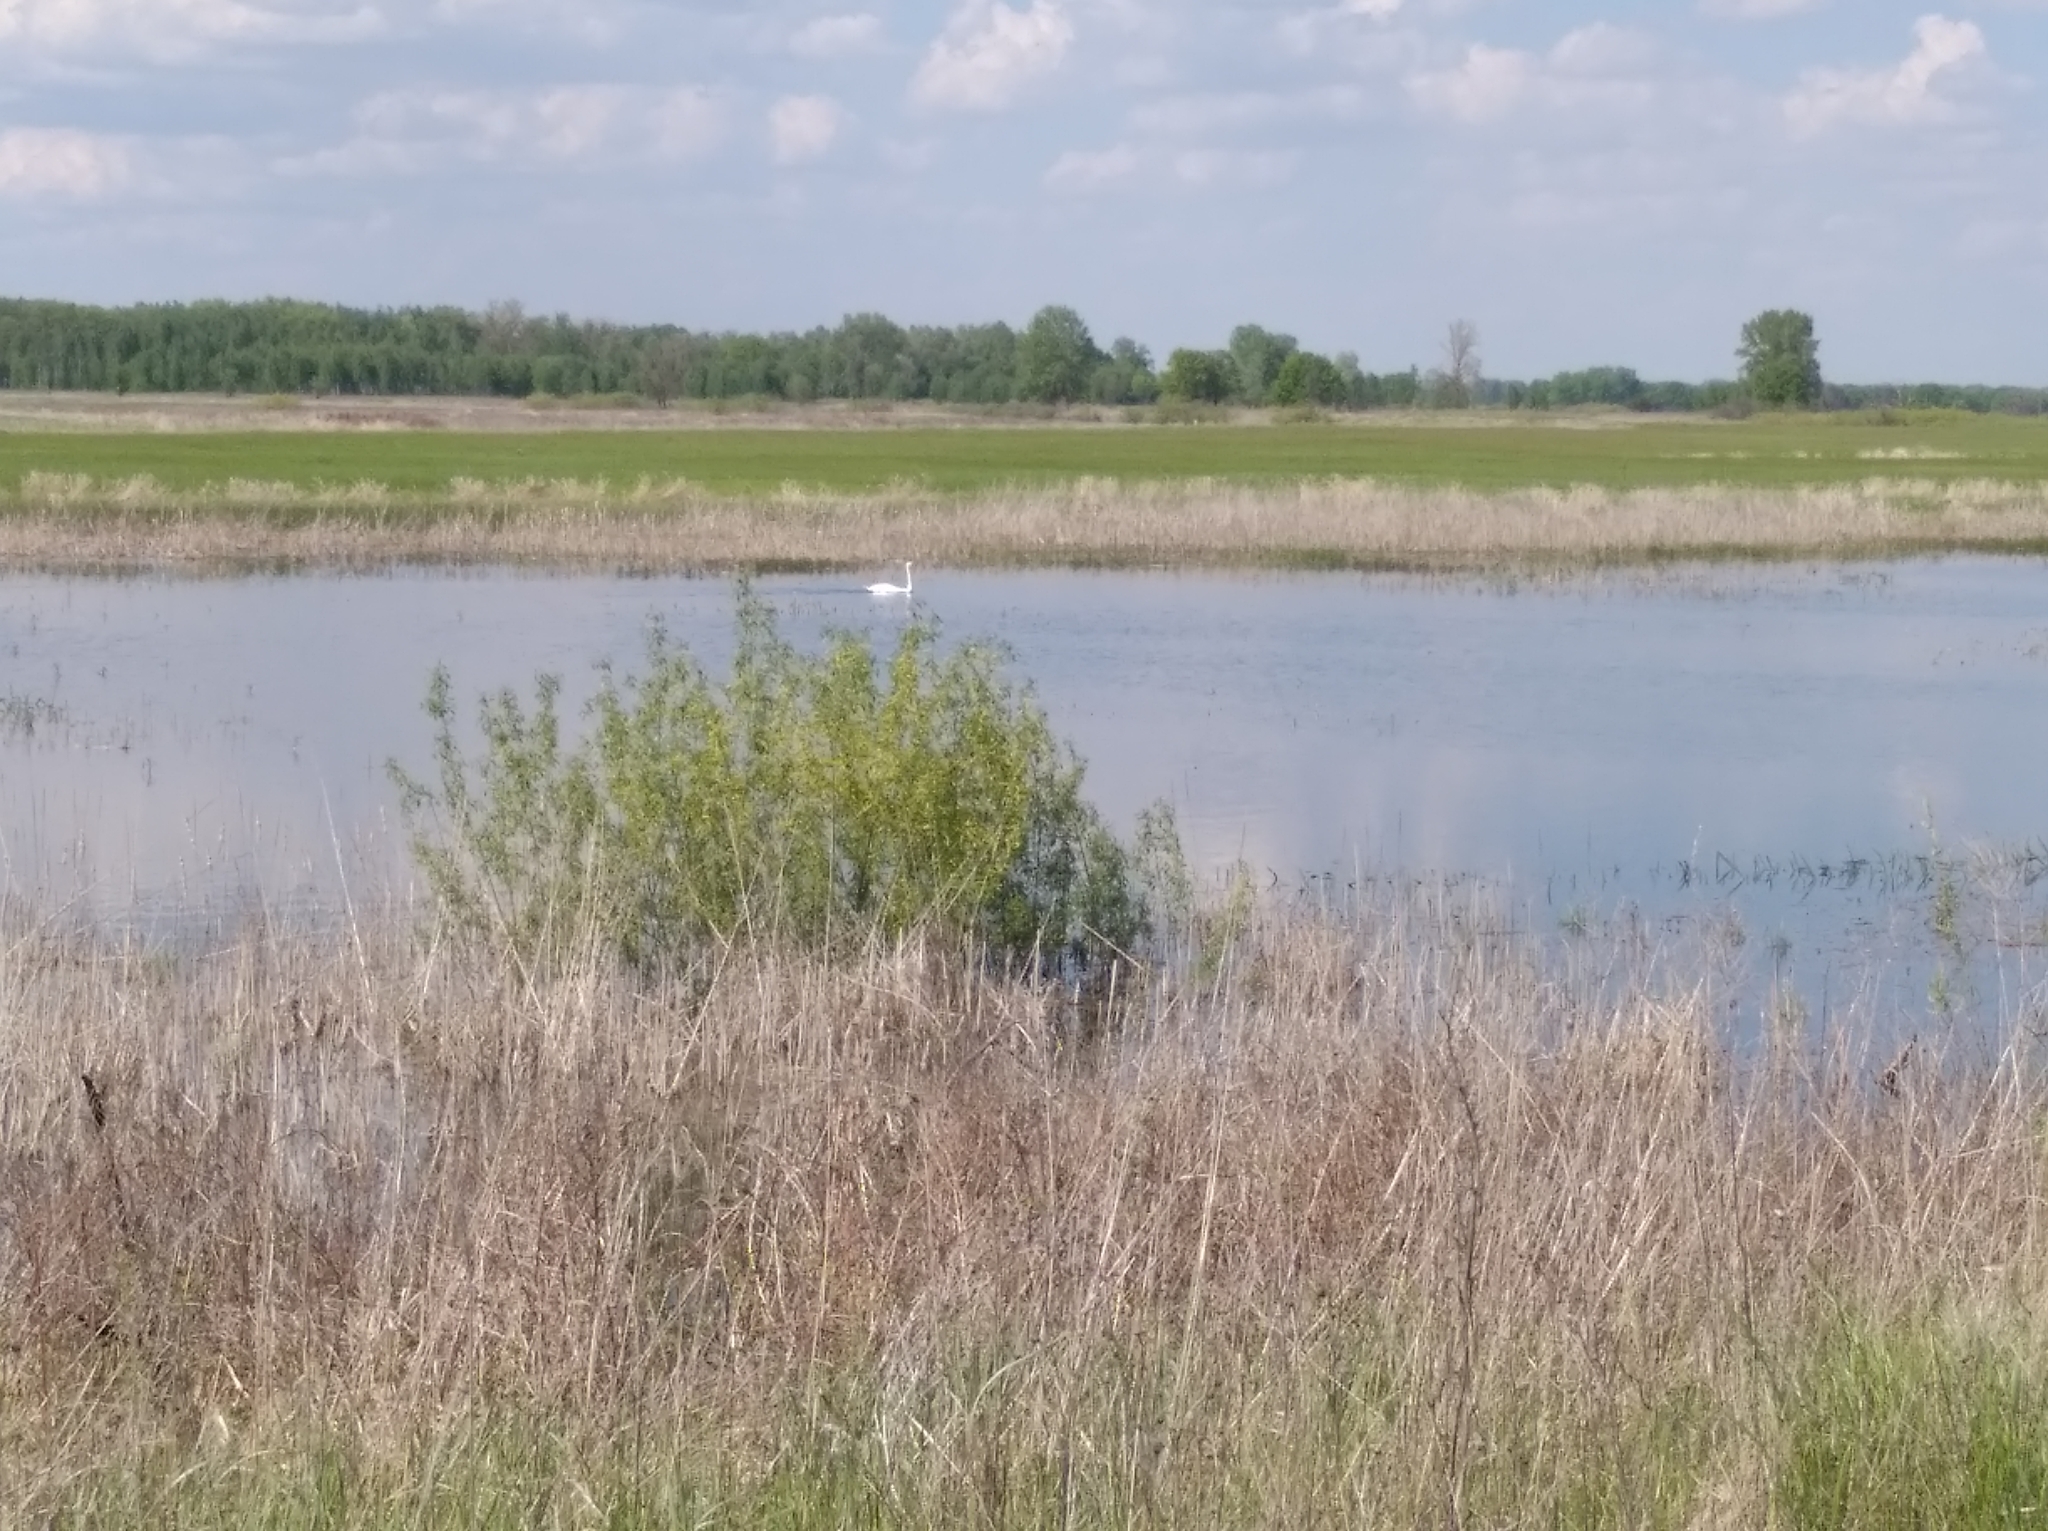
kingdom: Animalia
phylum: Chordata
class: Aves
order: Anseriformes
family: Anatidae
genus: Cygnus
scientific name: Cygnus olor
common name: Mute swan
